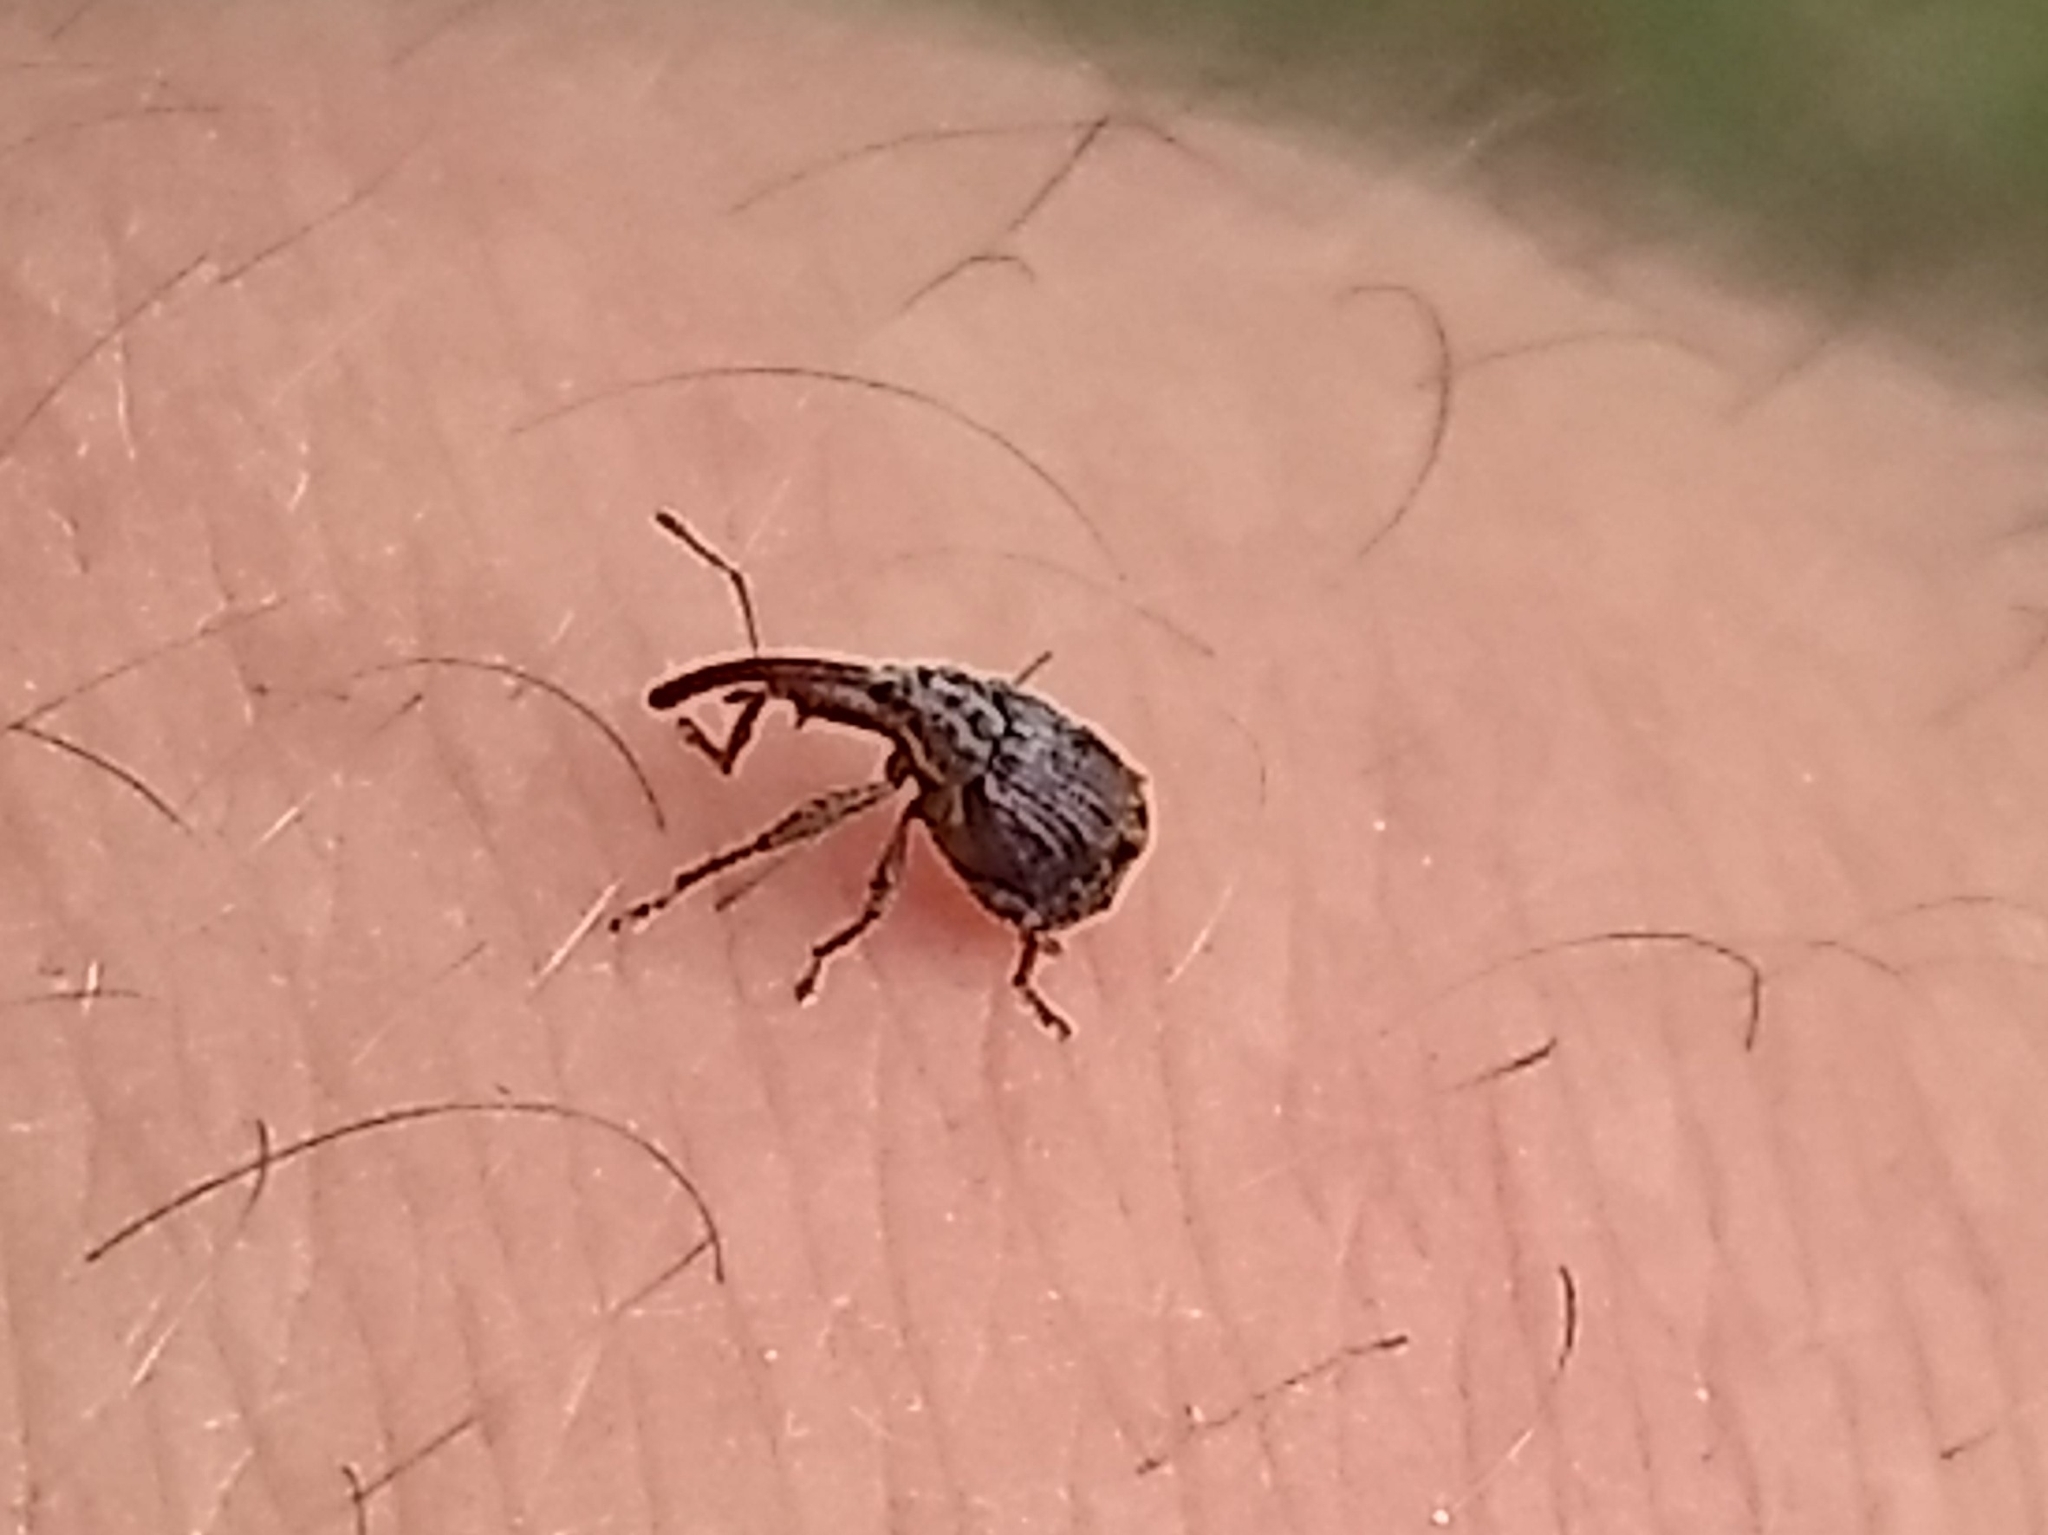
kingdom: Animalia
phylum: Arthropoda
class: Insecta
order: Coleoptera
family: Curculionidae
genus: Anthonomus
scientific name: Anthonomus quadrigibbus
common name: Apple curculio
